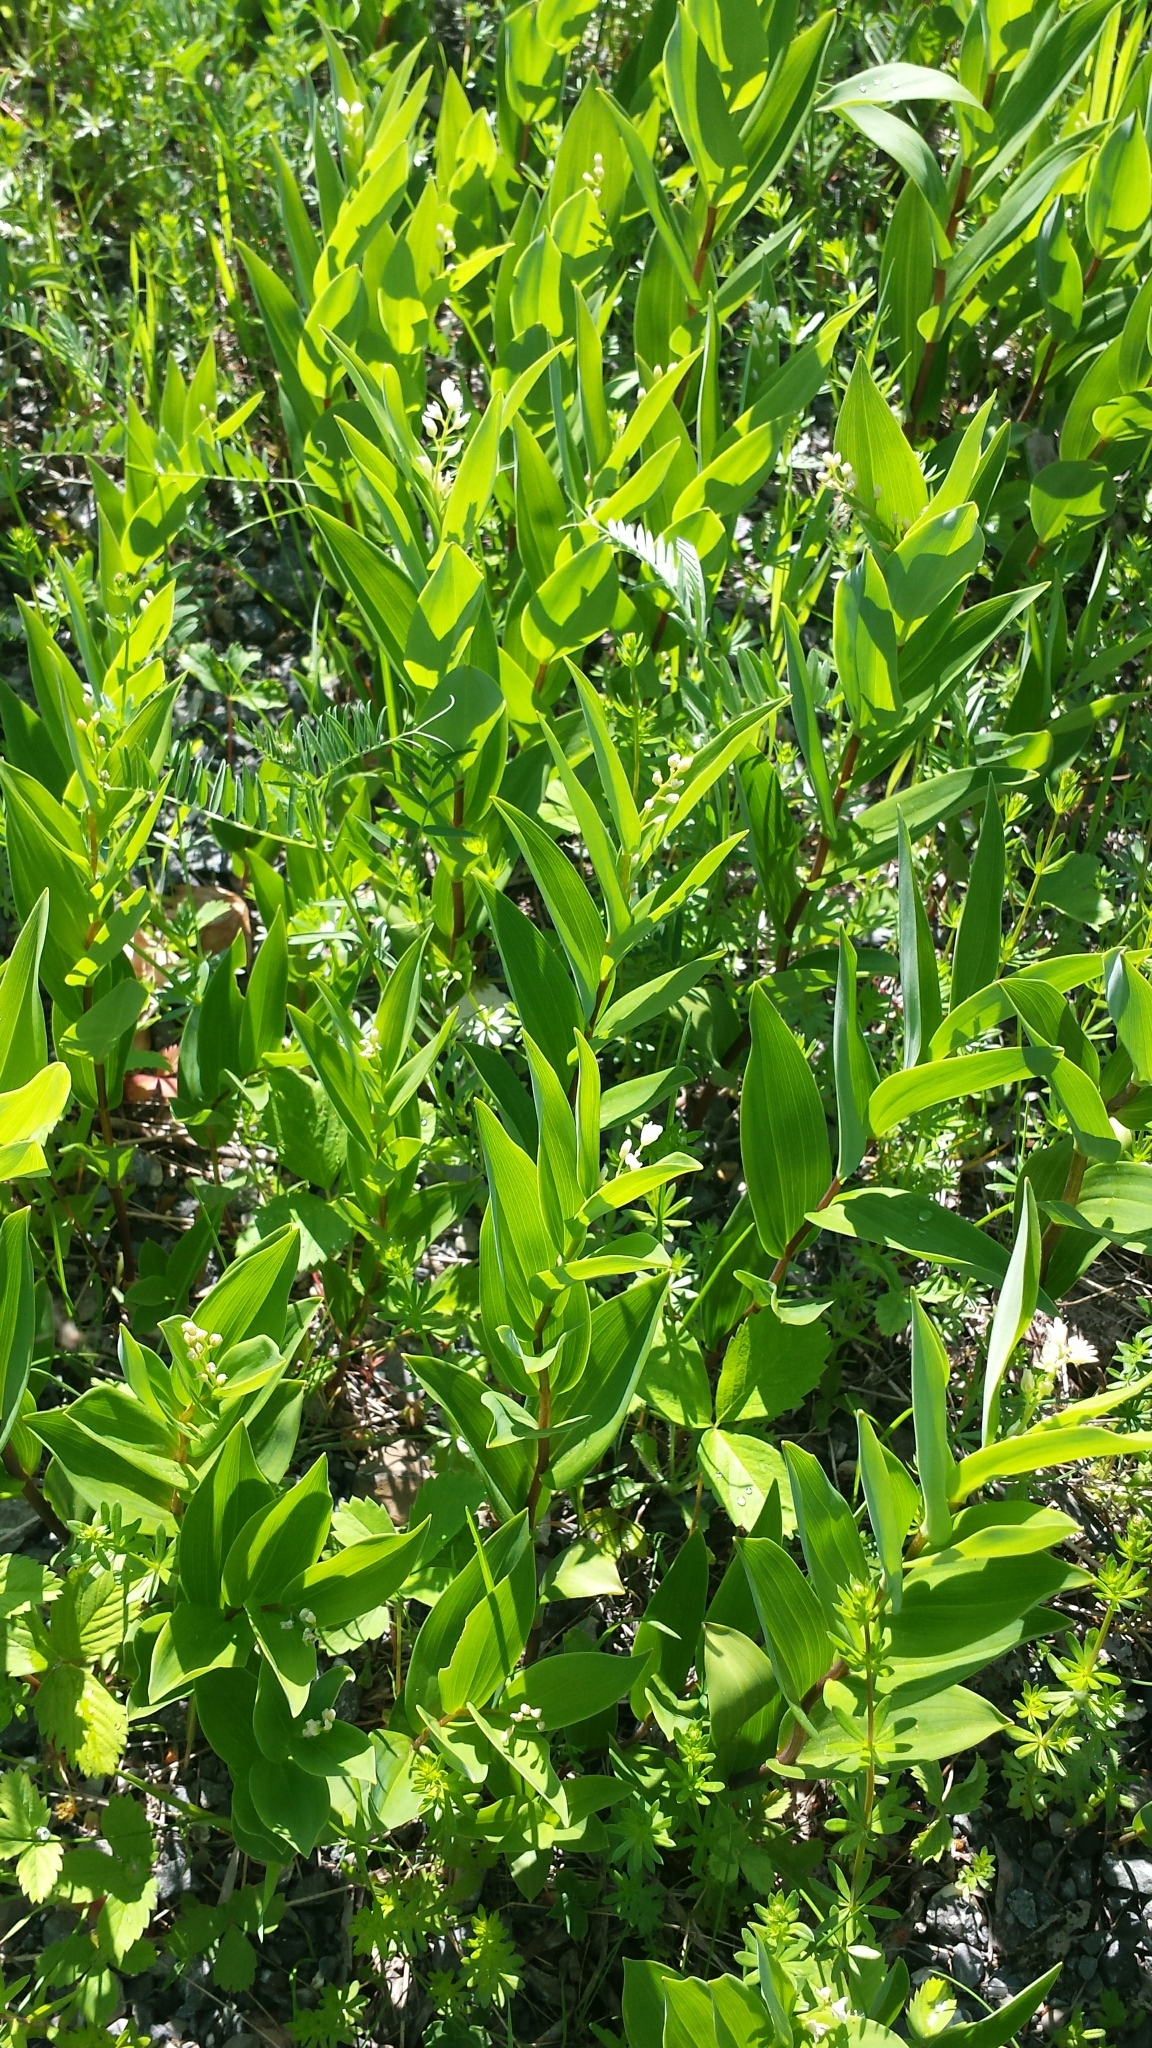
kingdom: Plantae
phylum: Tracheophyta
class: Liliopsida
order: Asparagales
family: Asparagaceae
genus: Maianthemum
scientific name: Maianthemum stellatum
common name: Little false solomon's seal
